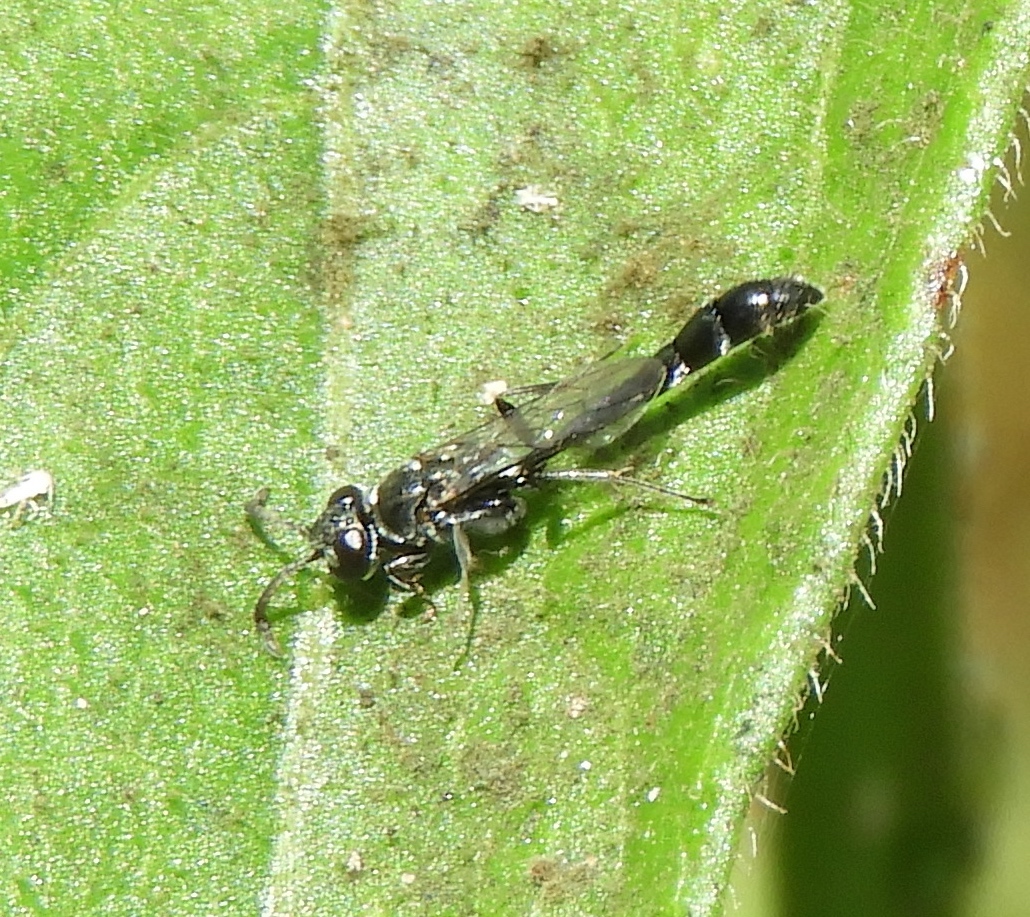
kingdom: Animalia
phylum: Arthropoda
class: Insecta
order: Hymenoptera
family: Crabronidae
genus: Trypoxylon
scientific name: Trypoxylon
